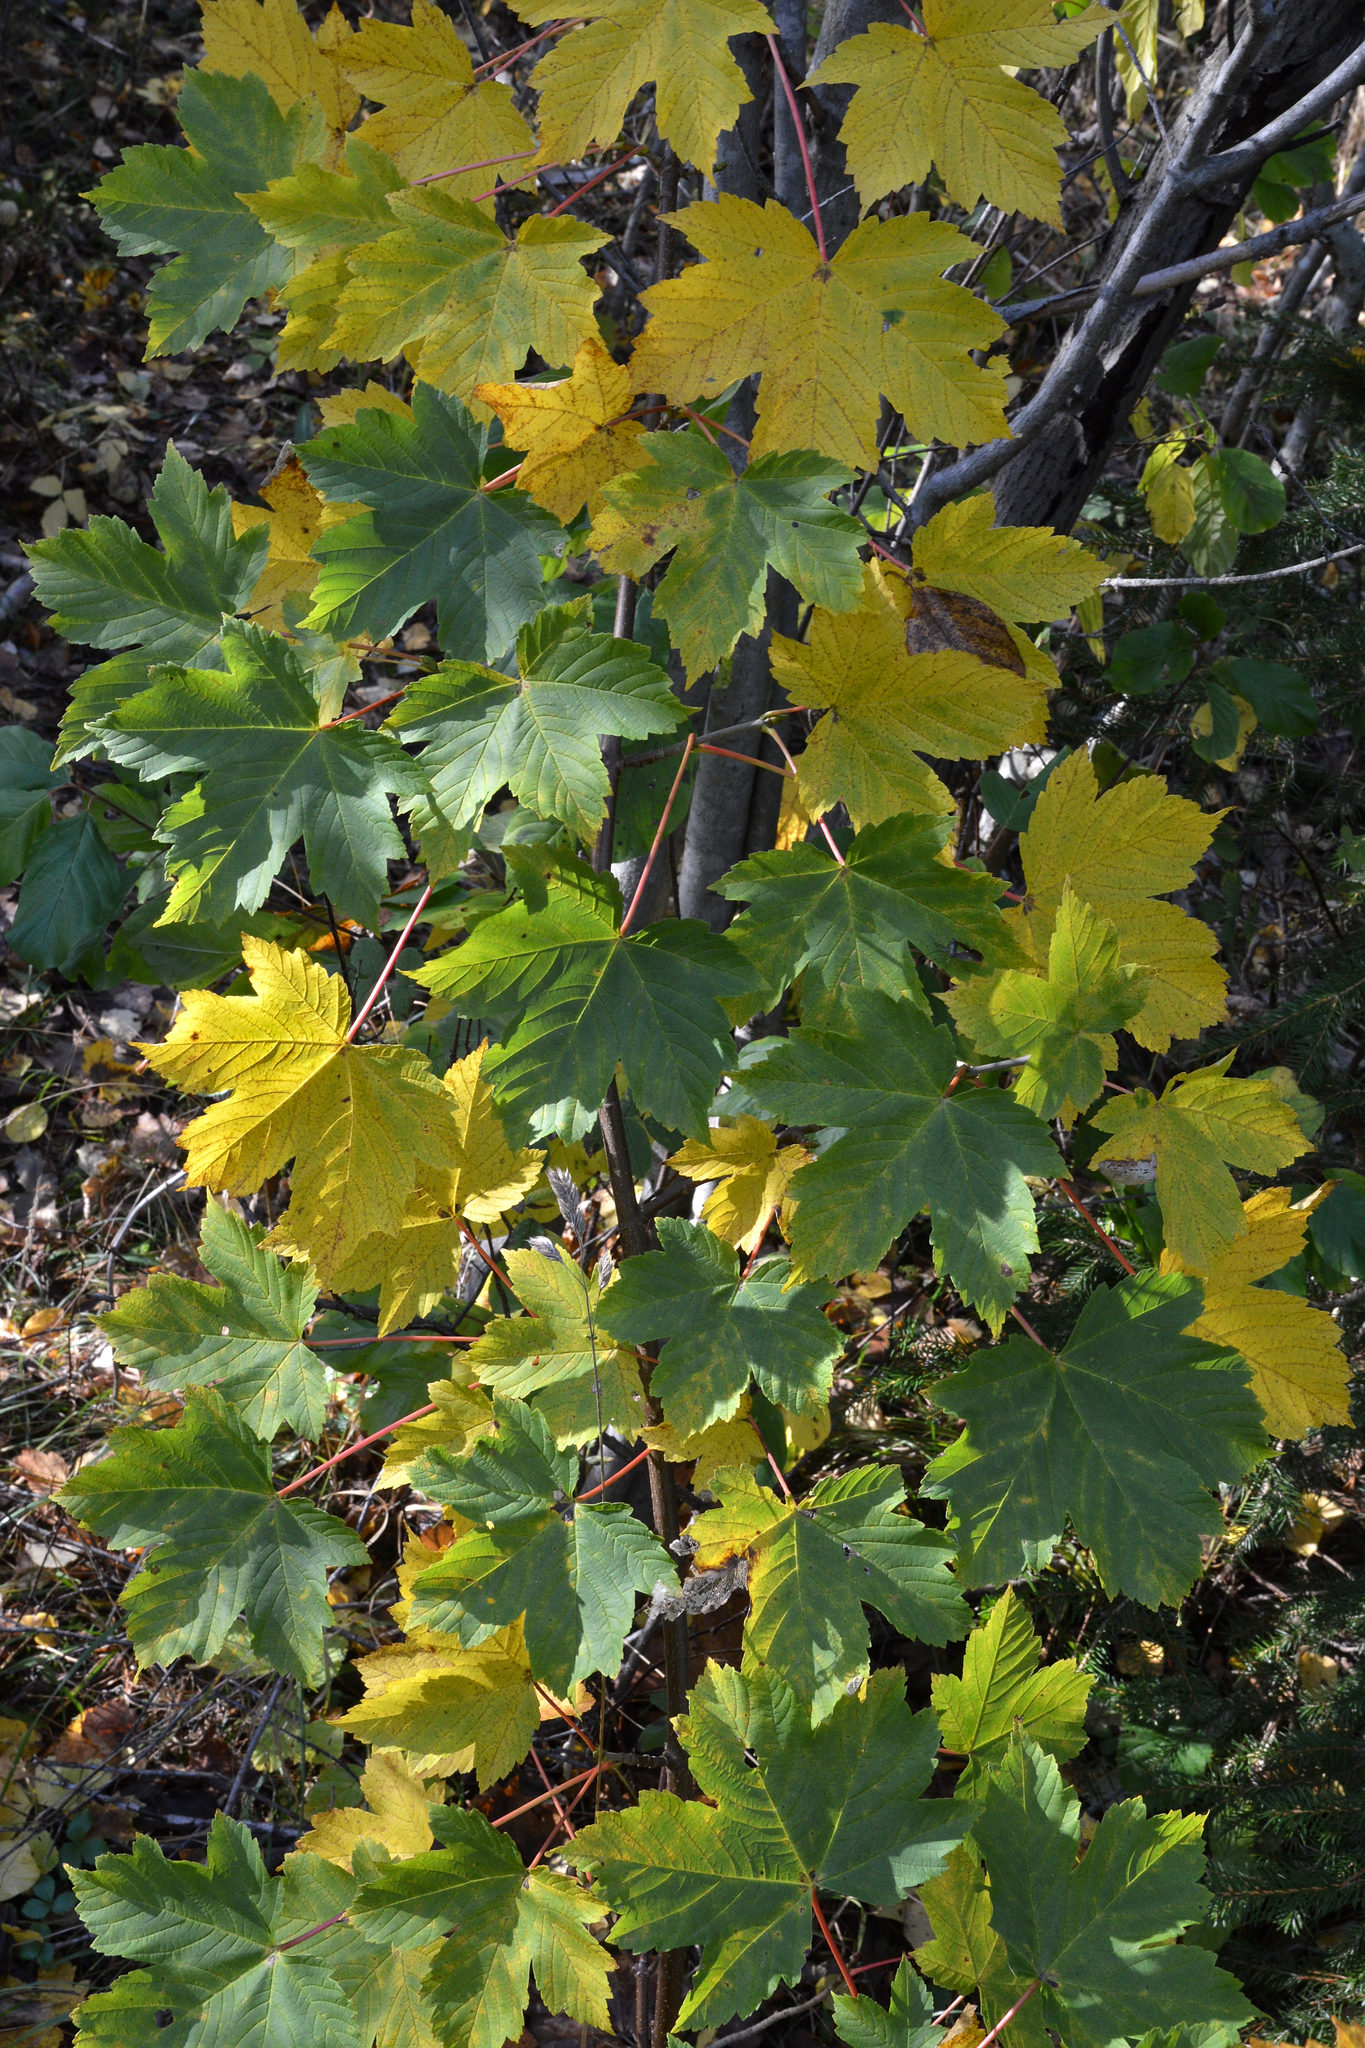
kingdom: Plantae
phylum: Tracheophyta
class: Magnoliopsida
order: Sapindales
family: Sapindaceae
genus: Acer
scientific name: Acer pseudoplatanus
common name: Sycamore
